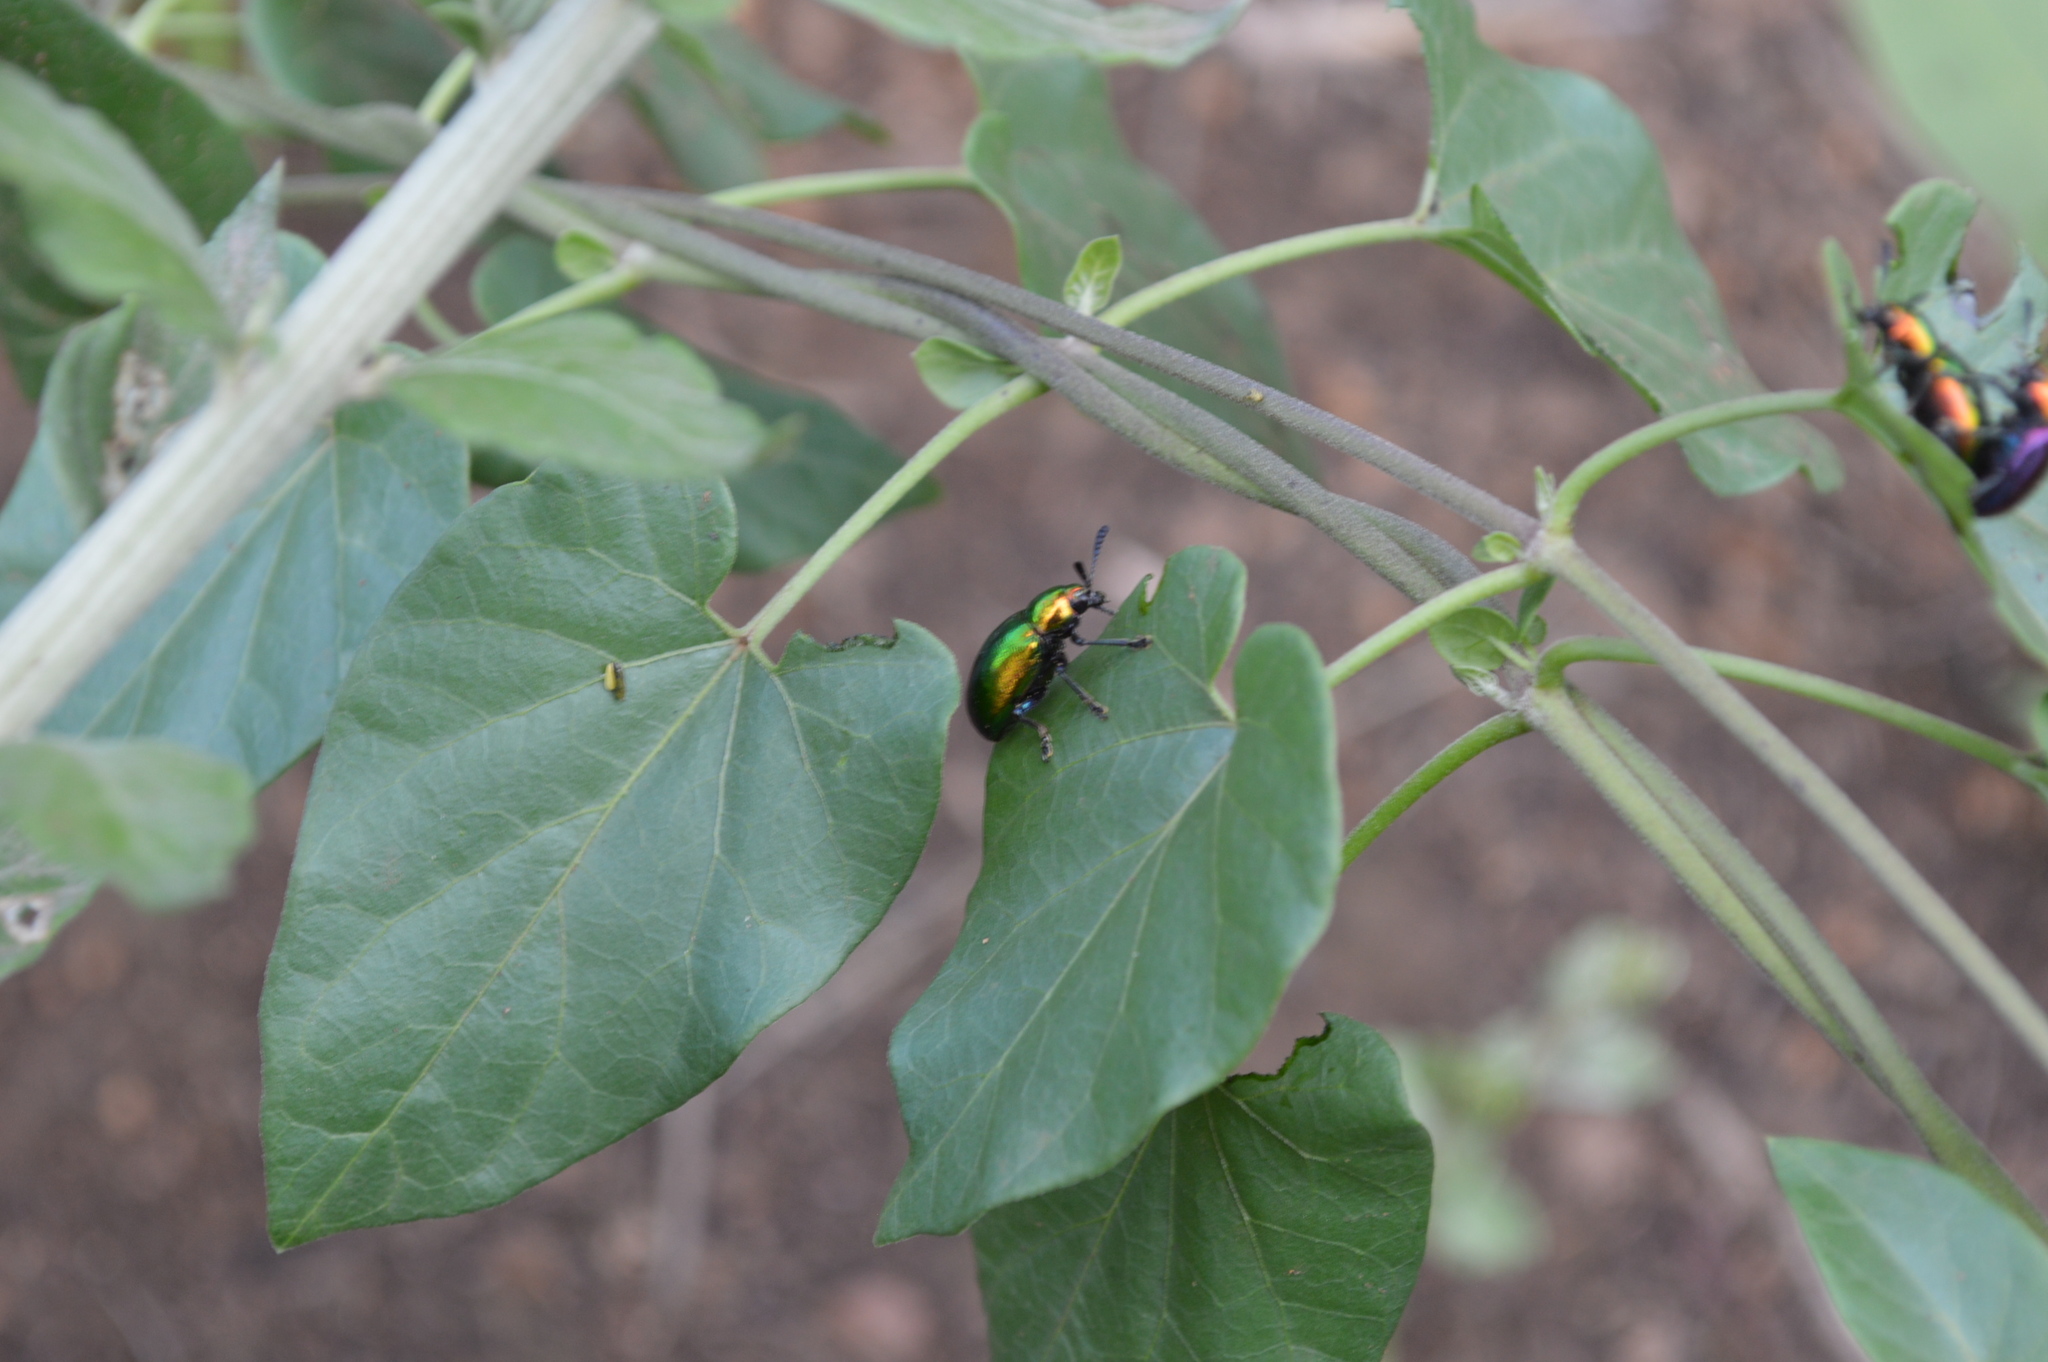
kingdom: Animalia
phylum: Arthropoda
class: Insecta
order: Coleoptera
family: Chrysomelidae
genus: Platycorynus
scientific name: Platycorynus dejeani
